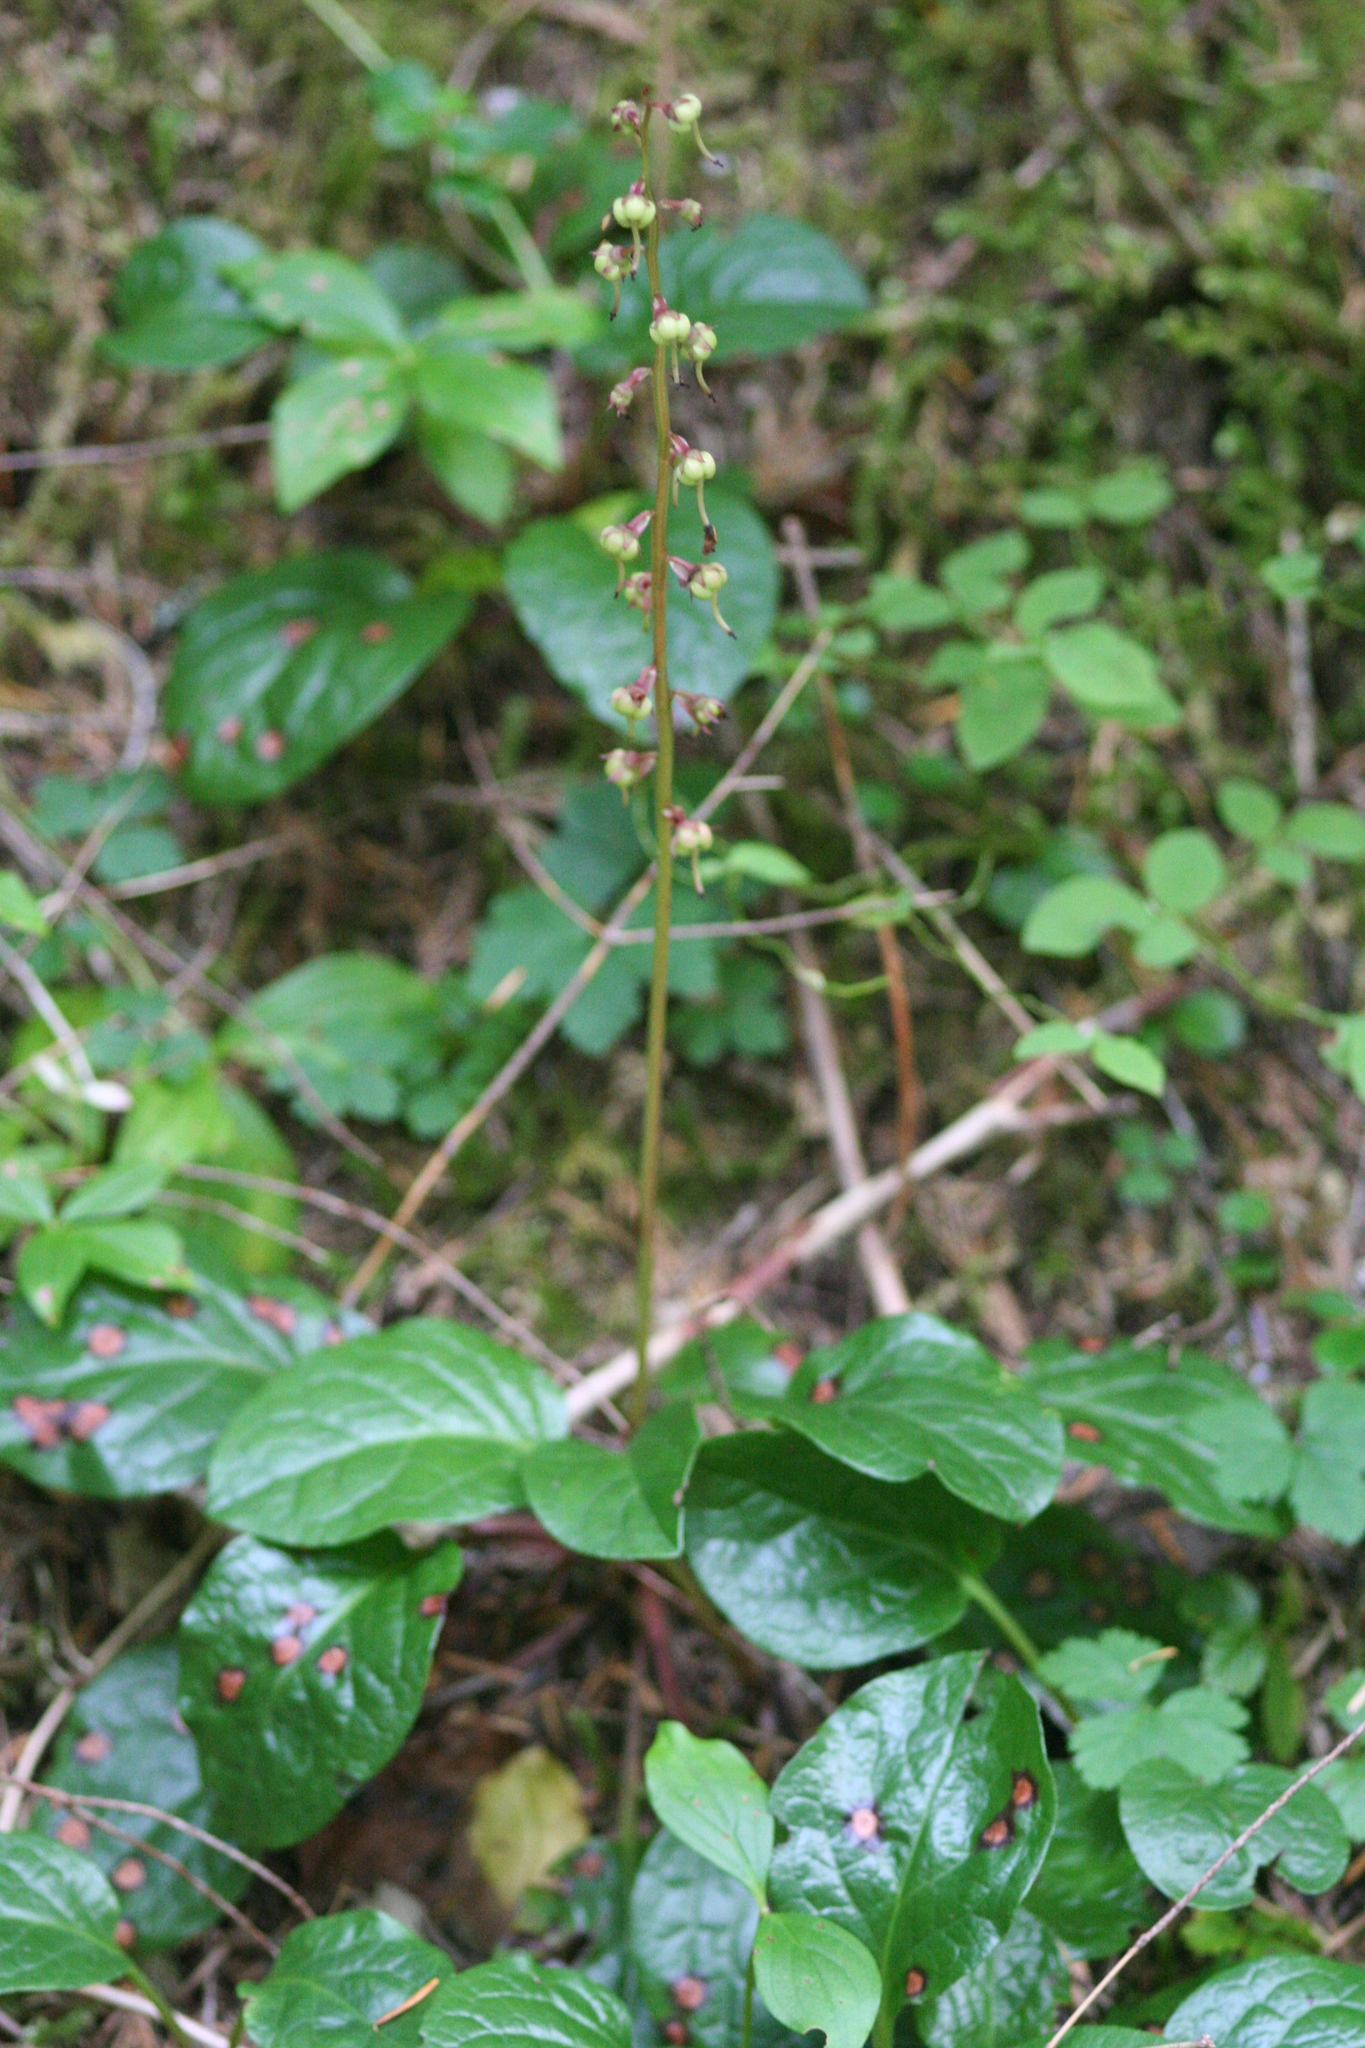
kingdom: Plantae
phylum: Tracheophyta
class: Magnoliopsida
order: Ericales
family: Ericaceae
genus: Pyrola
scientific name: Pyrola asarifolia
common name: Bog wintergreen
